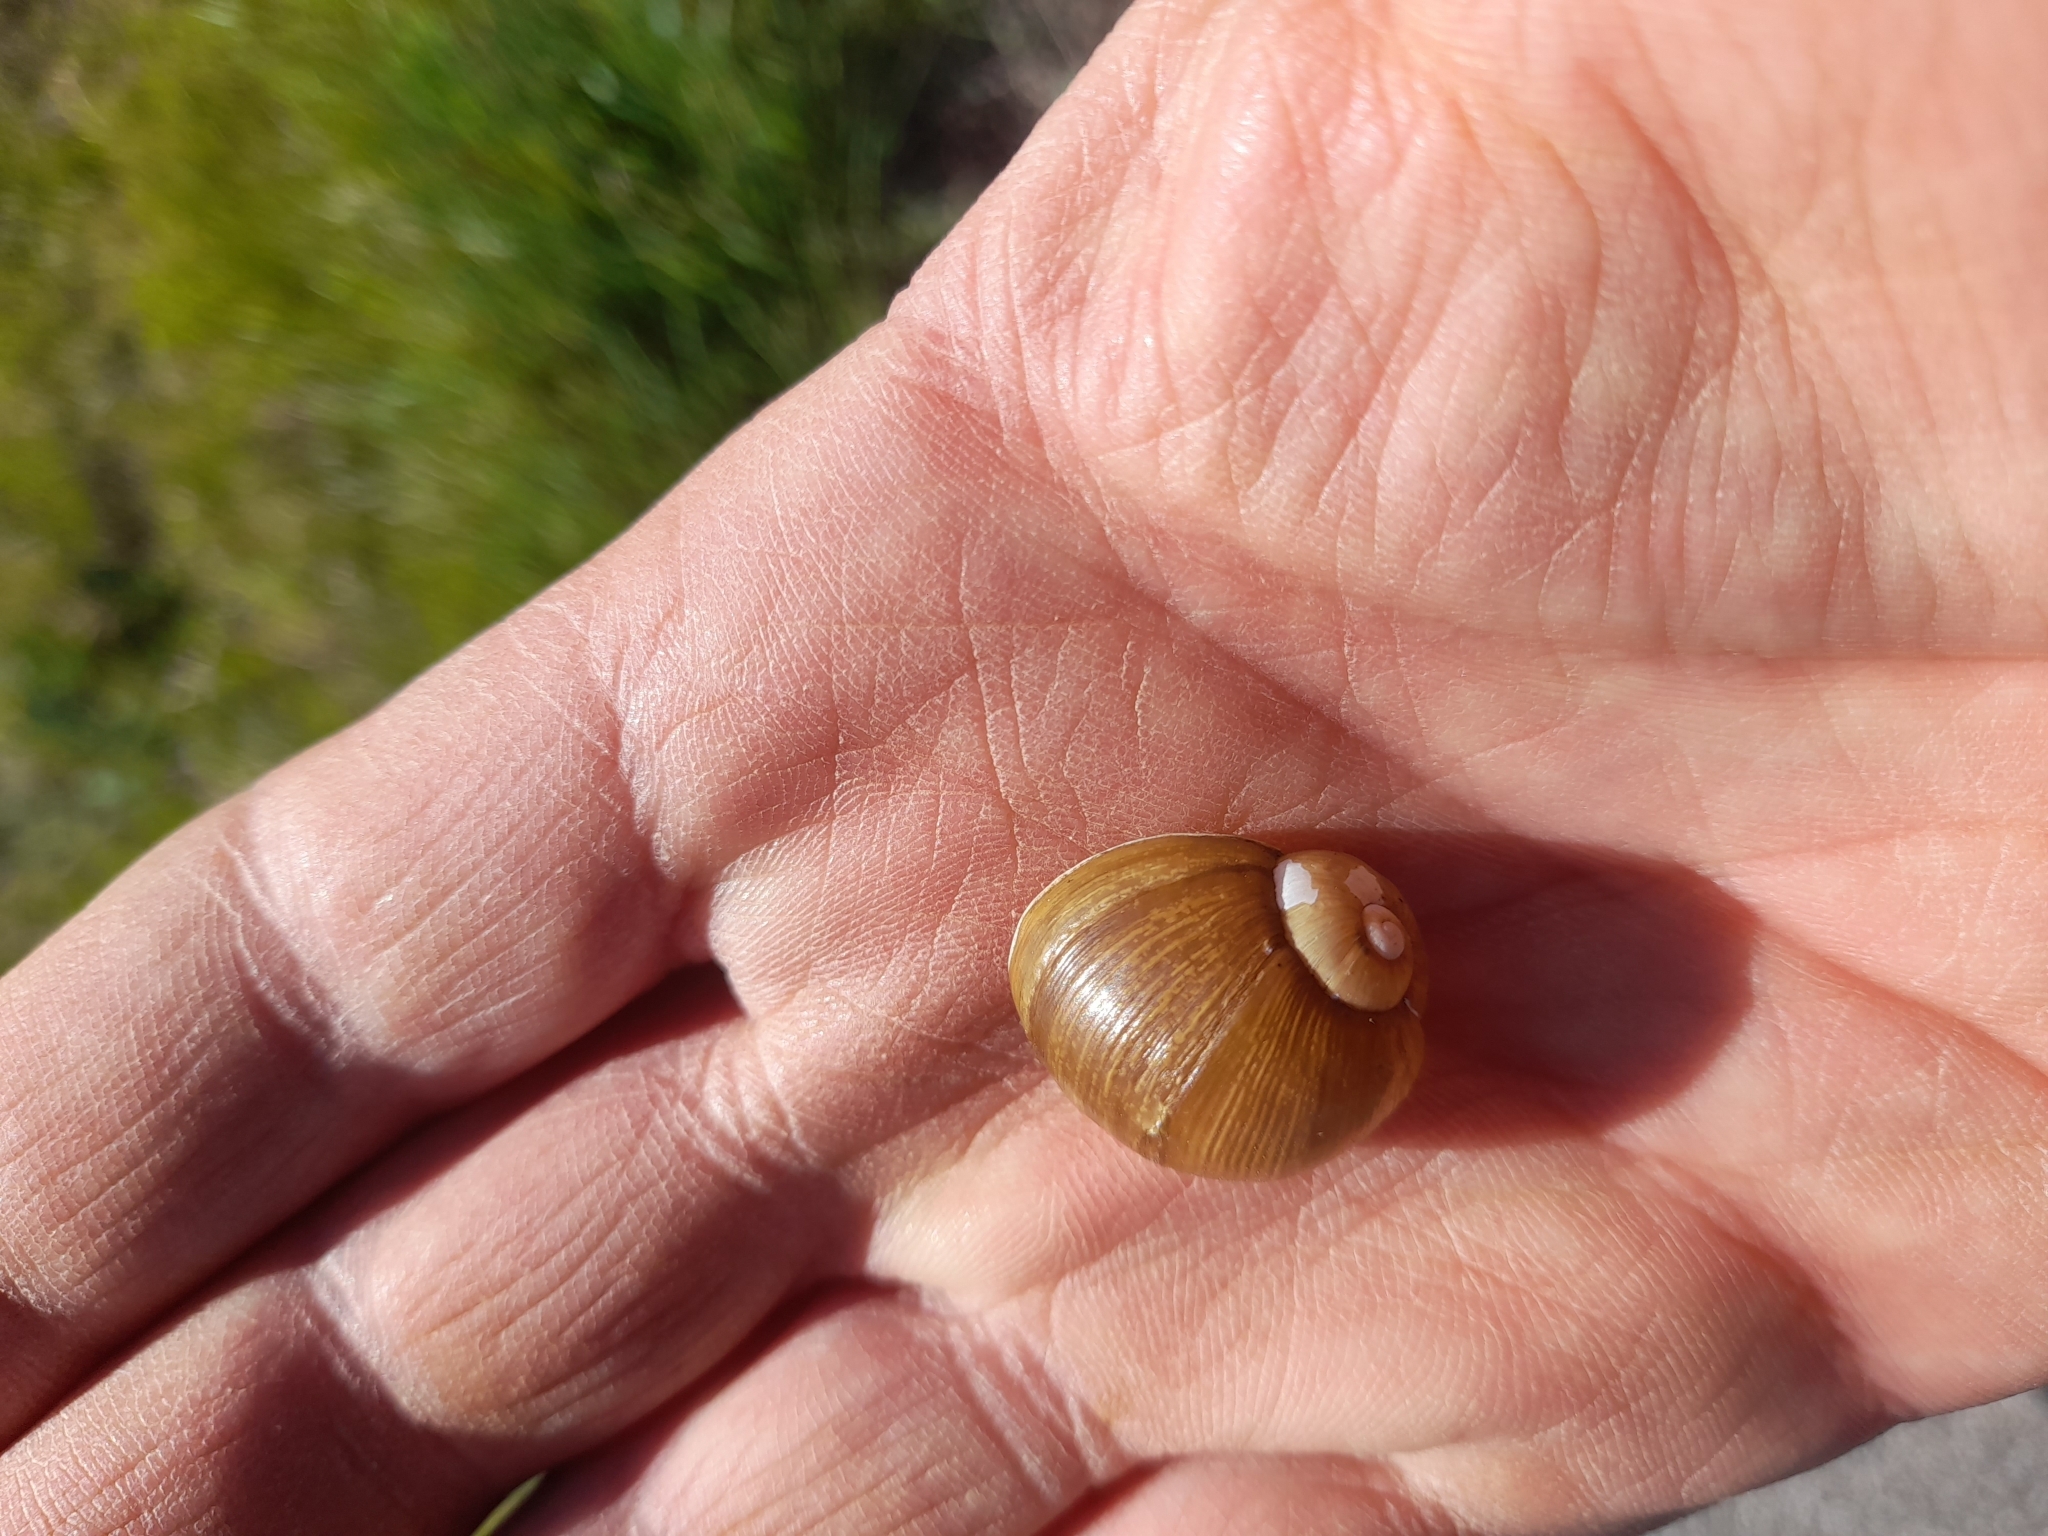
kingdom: Animalia
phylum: Mollusca
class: Gastropoda
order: Stylommatophora
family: Helicidae
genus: Cantareus
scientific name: Cantareus apertus
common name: Green gardensnail
